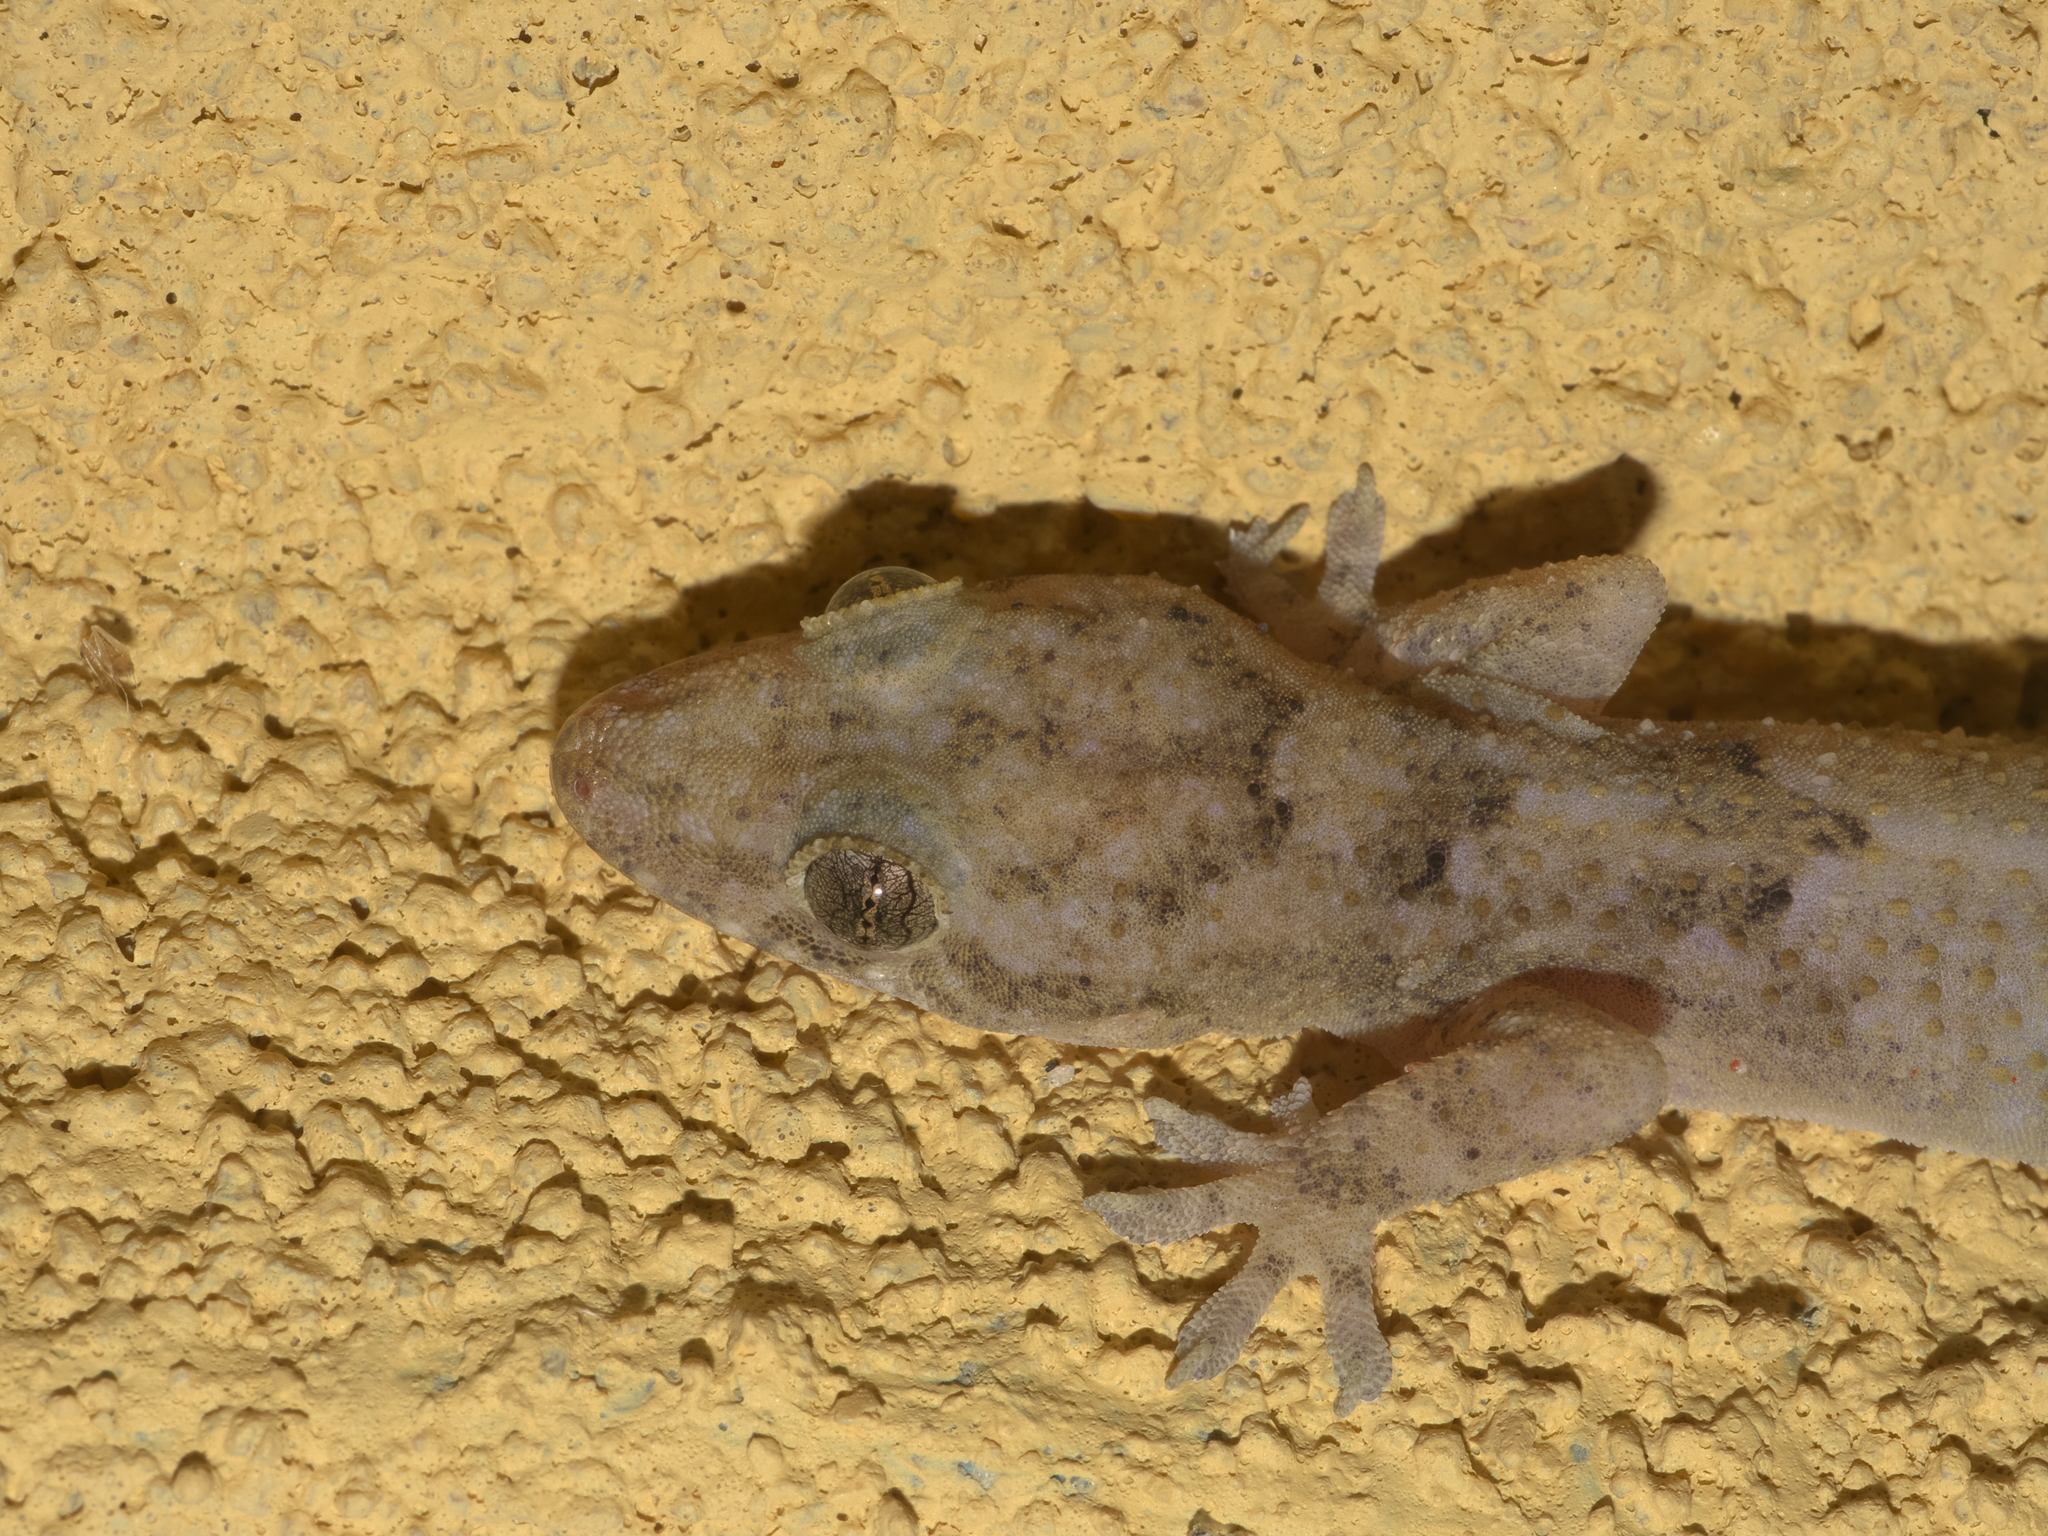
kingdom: Animalia
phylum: Chordata
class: Squamata
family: Gekkonidae
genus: Hemidactylus
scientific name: Hemidactylus mabouia
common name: House gecko
